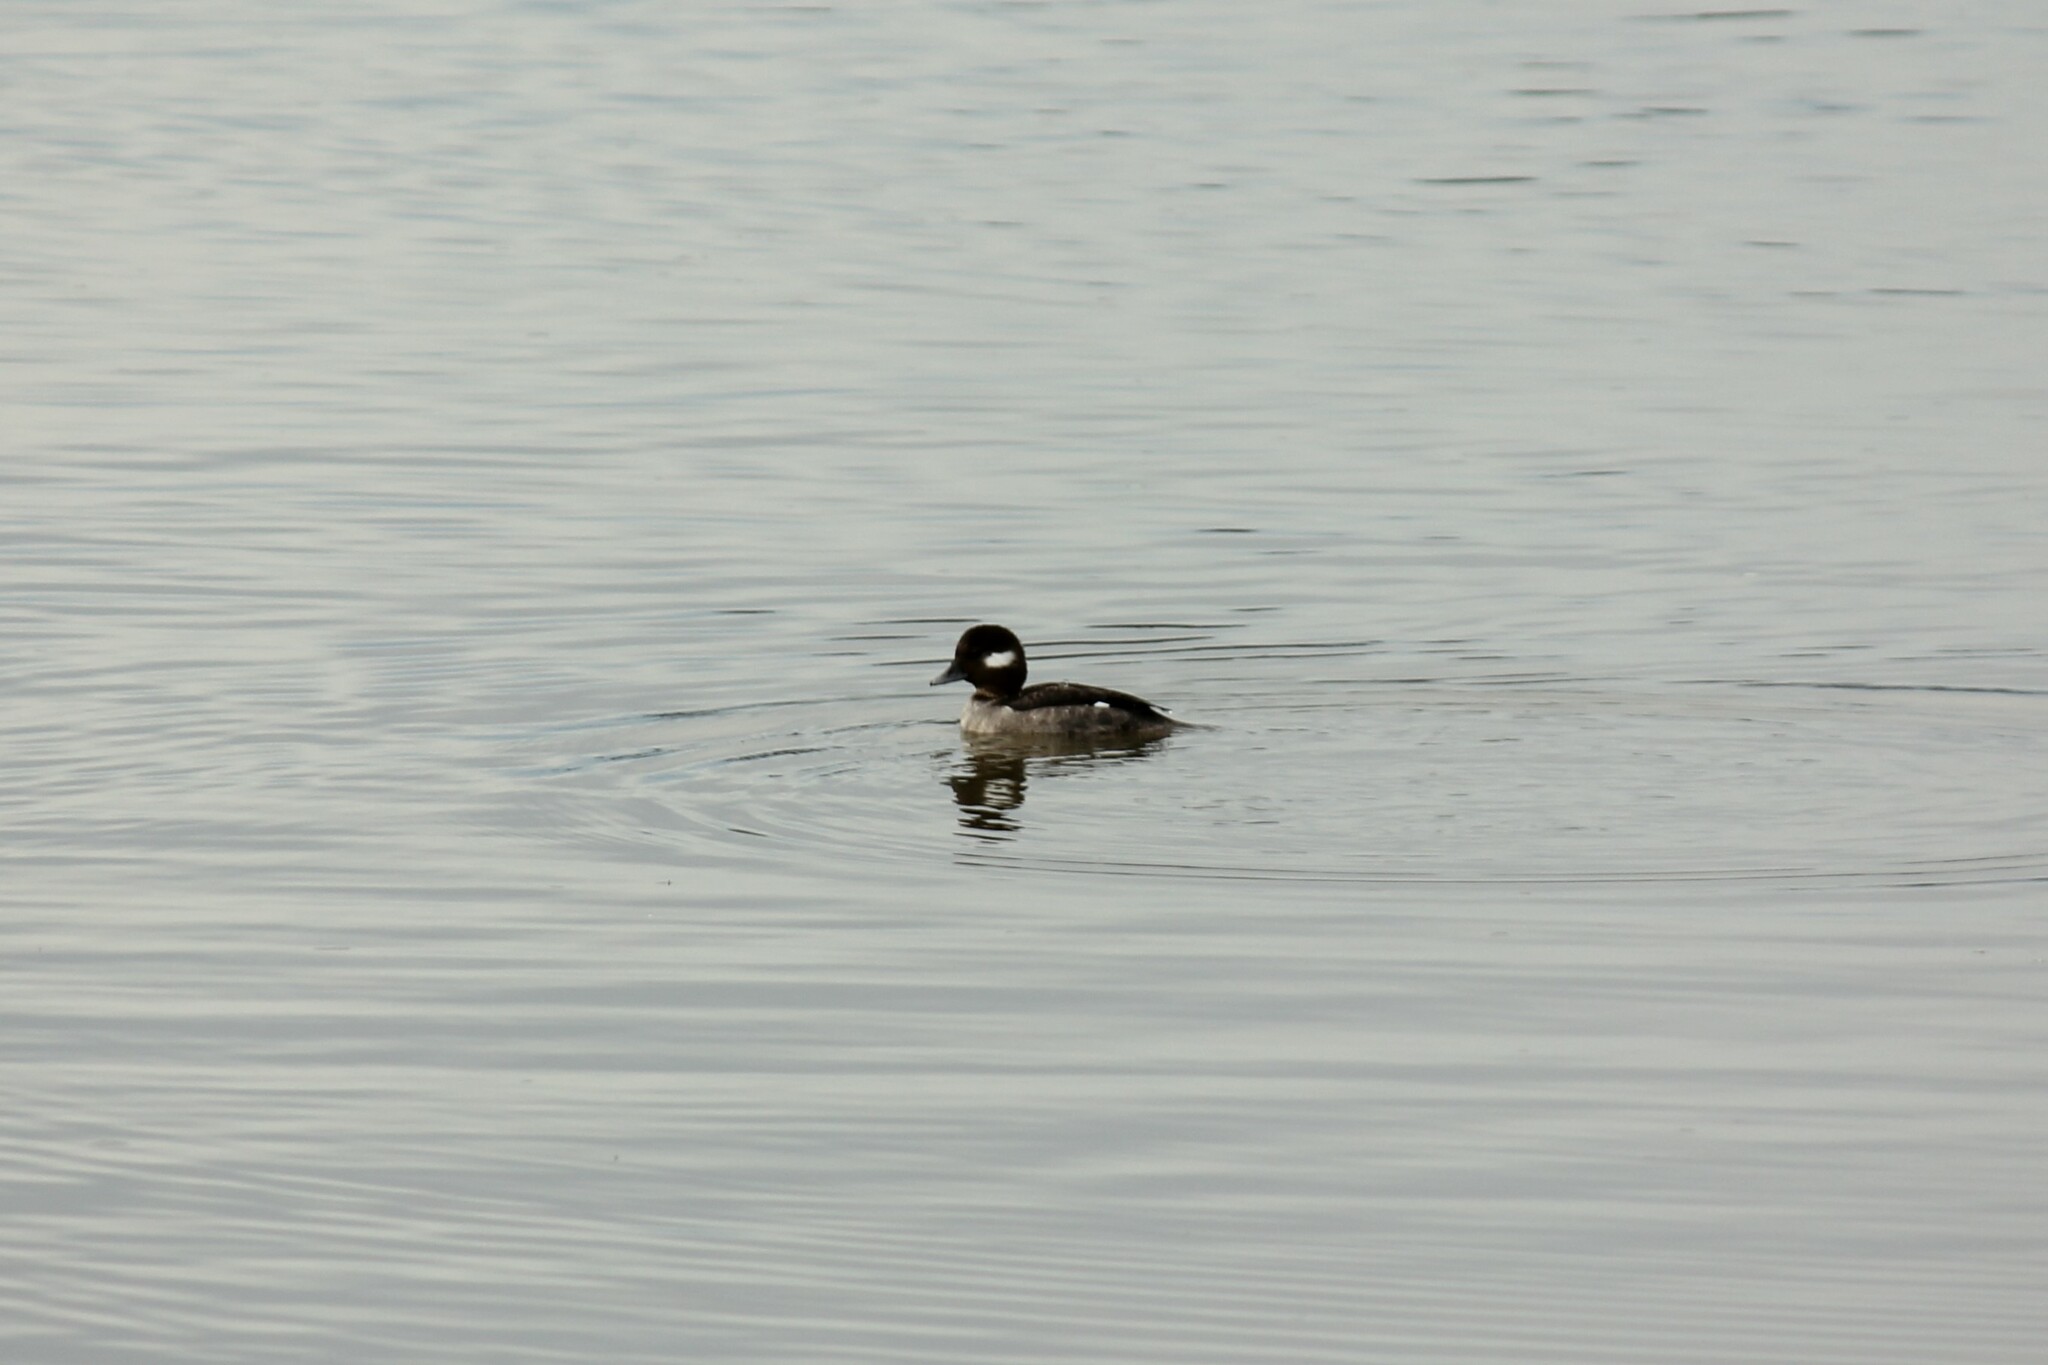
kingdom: Animalia
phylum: Chordata
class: Aves
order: Anseriformes
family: Anatidae
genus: Bucephala
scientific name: Bucephala albeola
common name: Bufflehead
